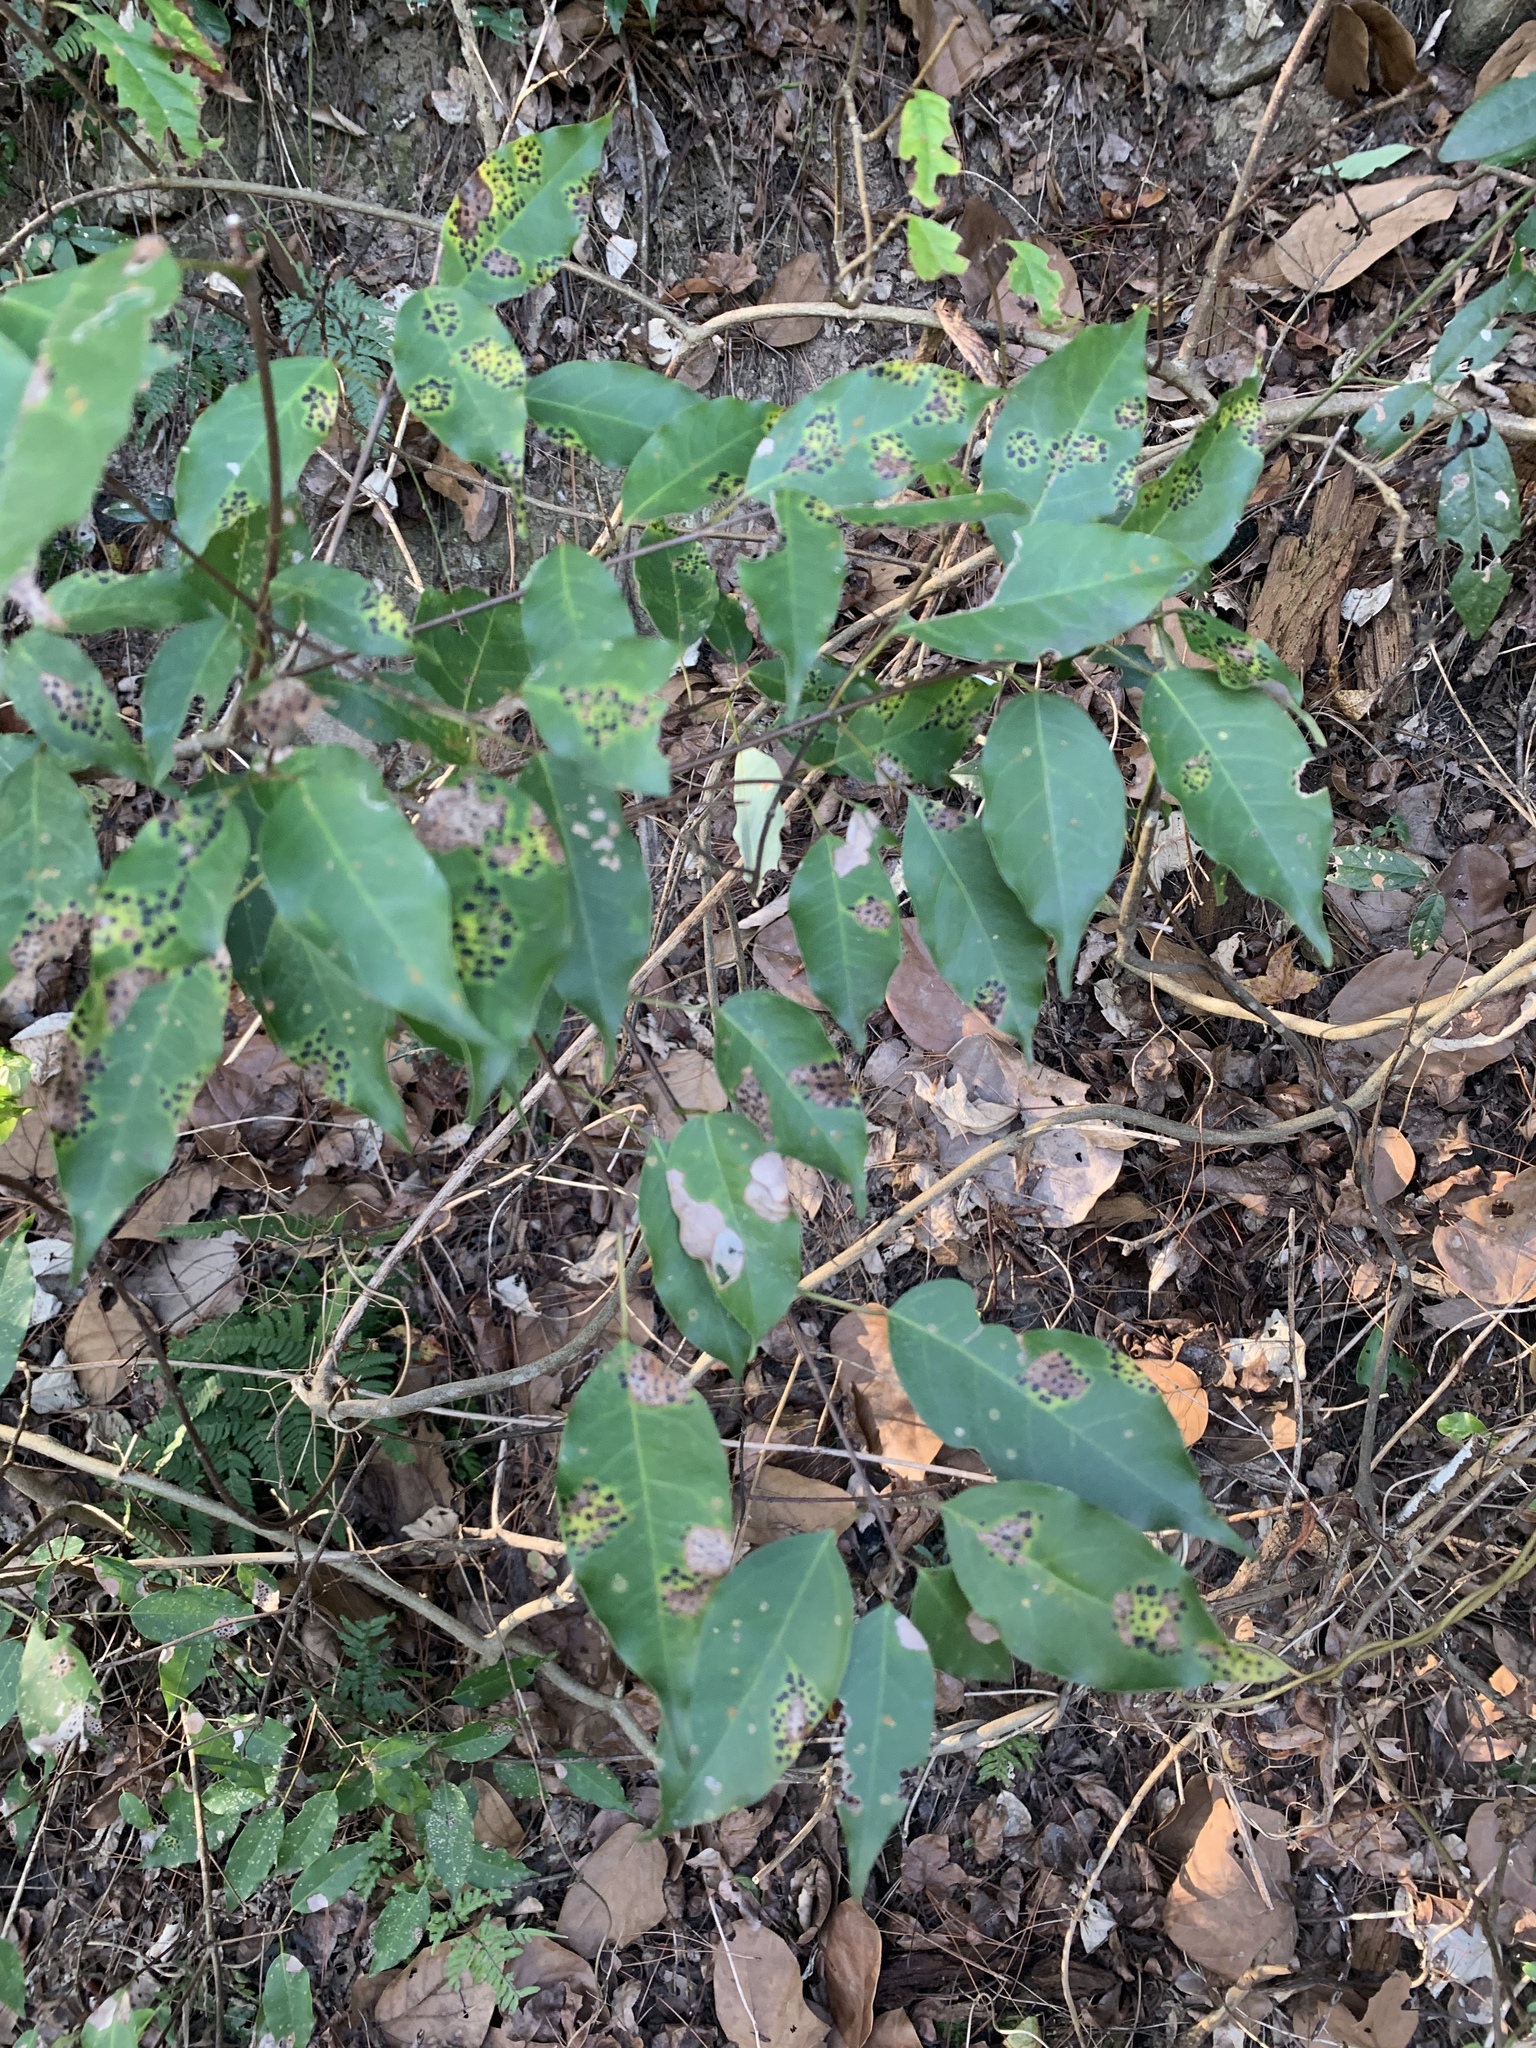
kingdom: Plantae
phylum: Tracheophyta
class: Magnoliopsida
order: Sapindales
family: Sapindaceae
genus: Acer
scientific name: Acer oblongum
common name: Himalayan maple
